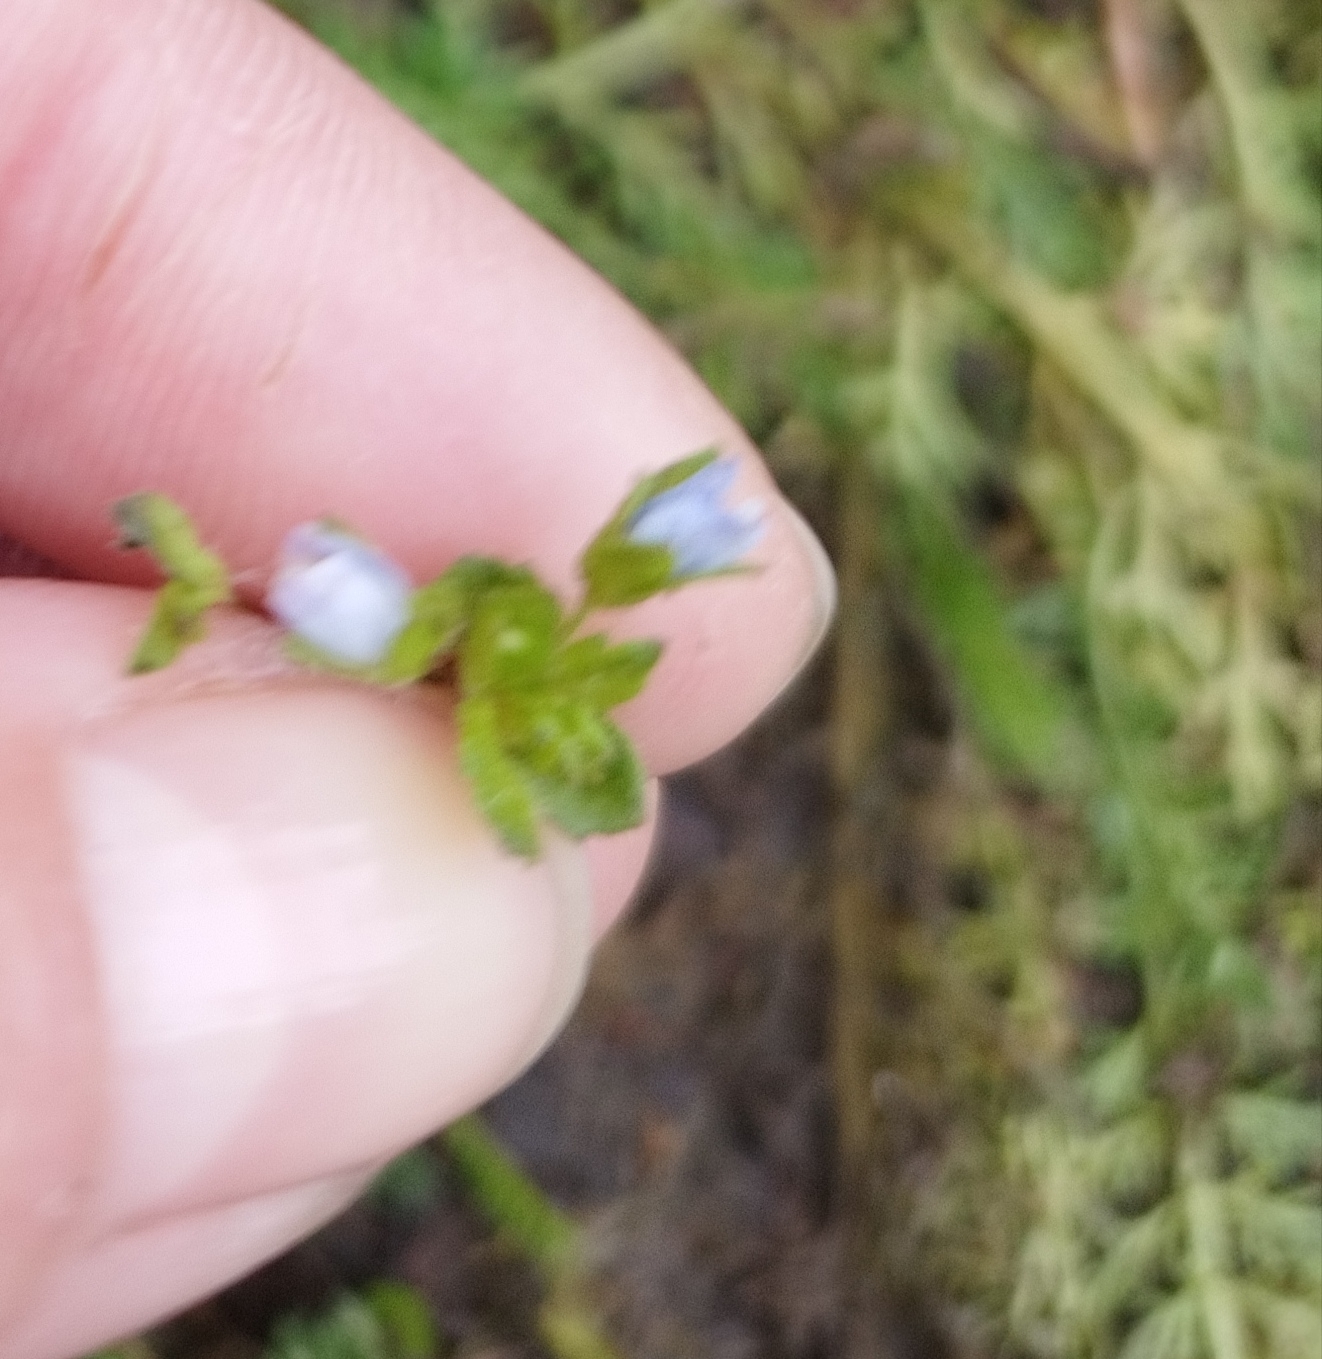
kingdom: Plantae
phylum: Tracheophyta
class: Magnoliopsida
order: Lamiales
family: Plantaginaceae
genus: Veronica
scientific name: Veronica persica
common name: Common field-speedwell
